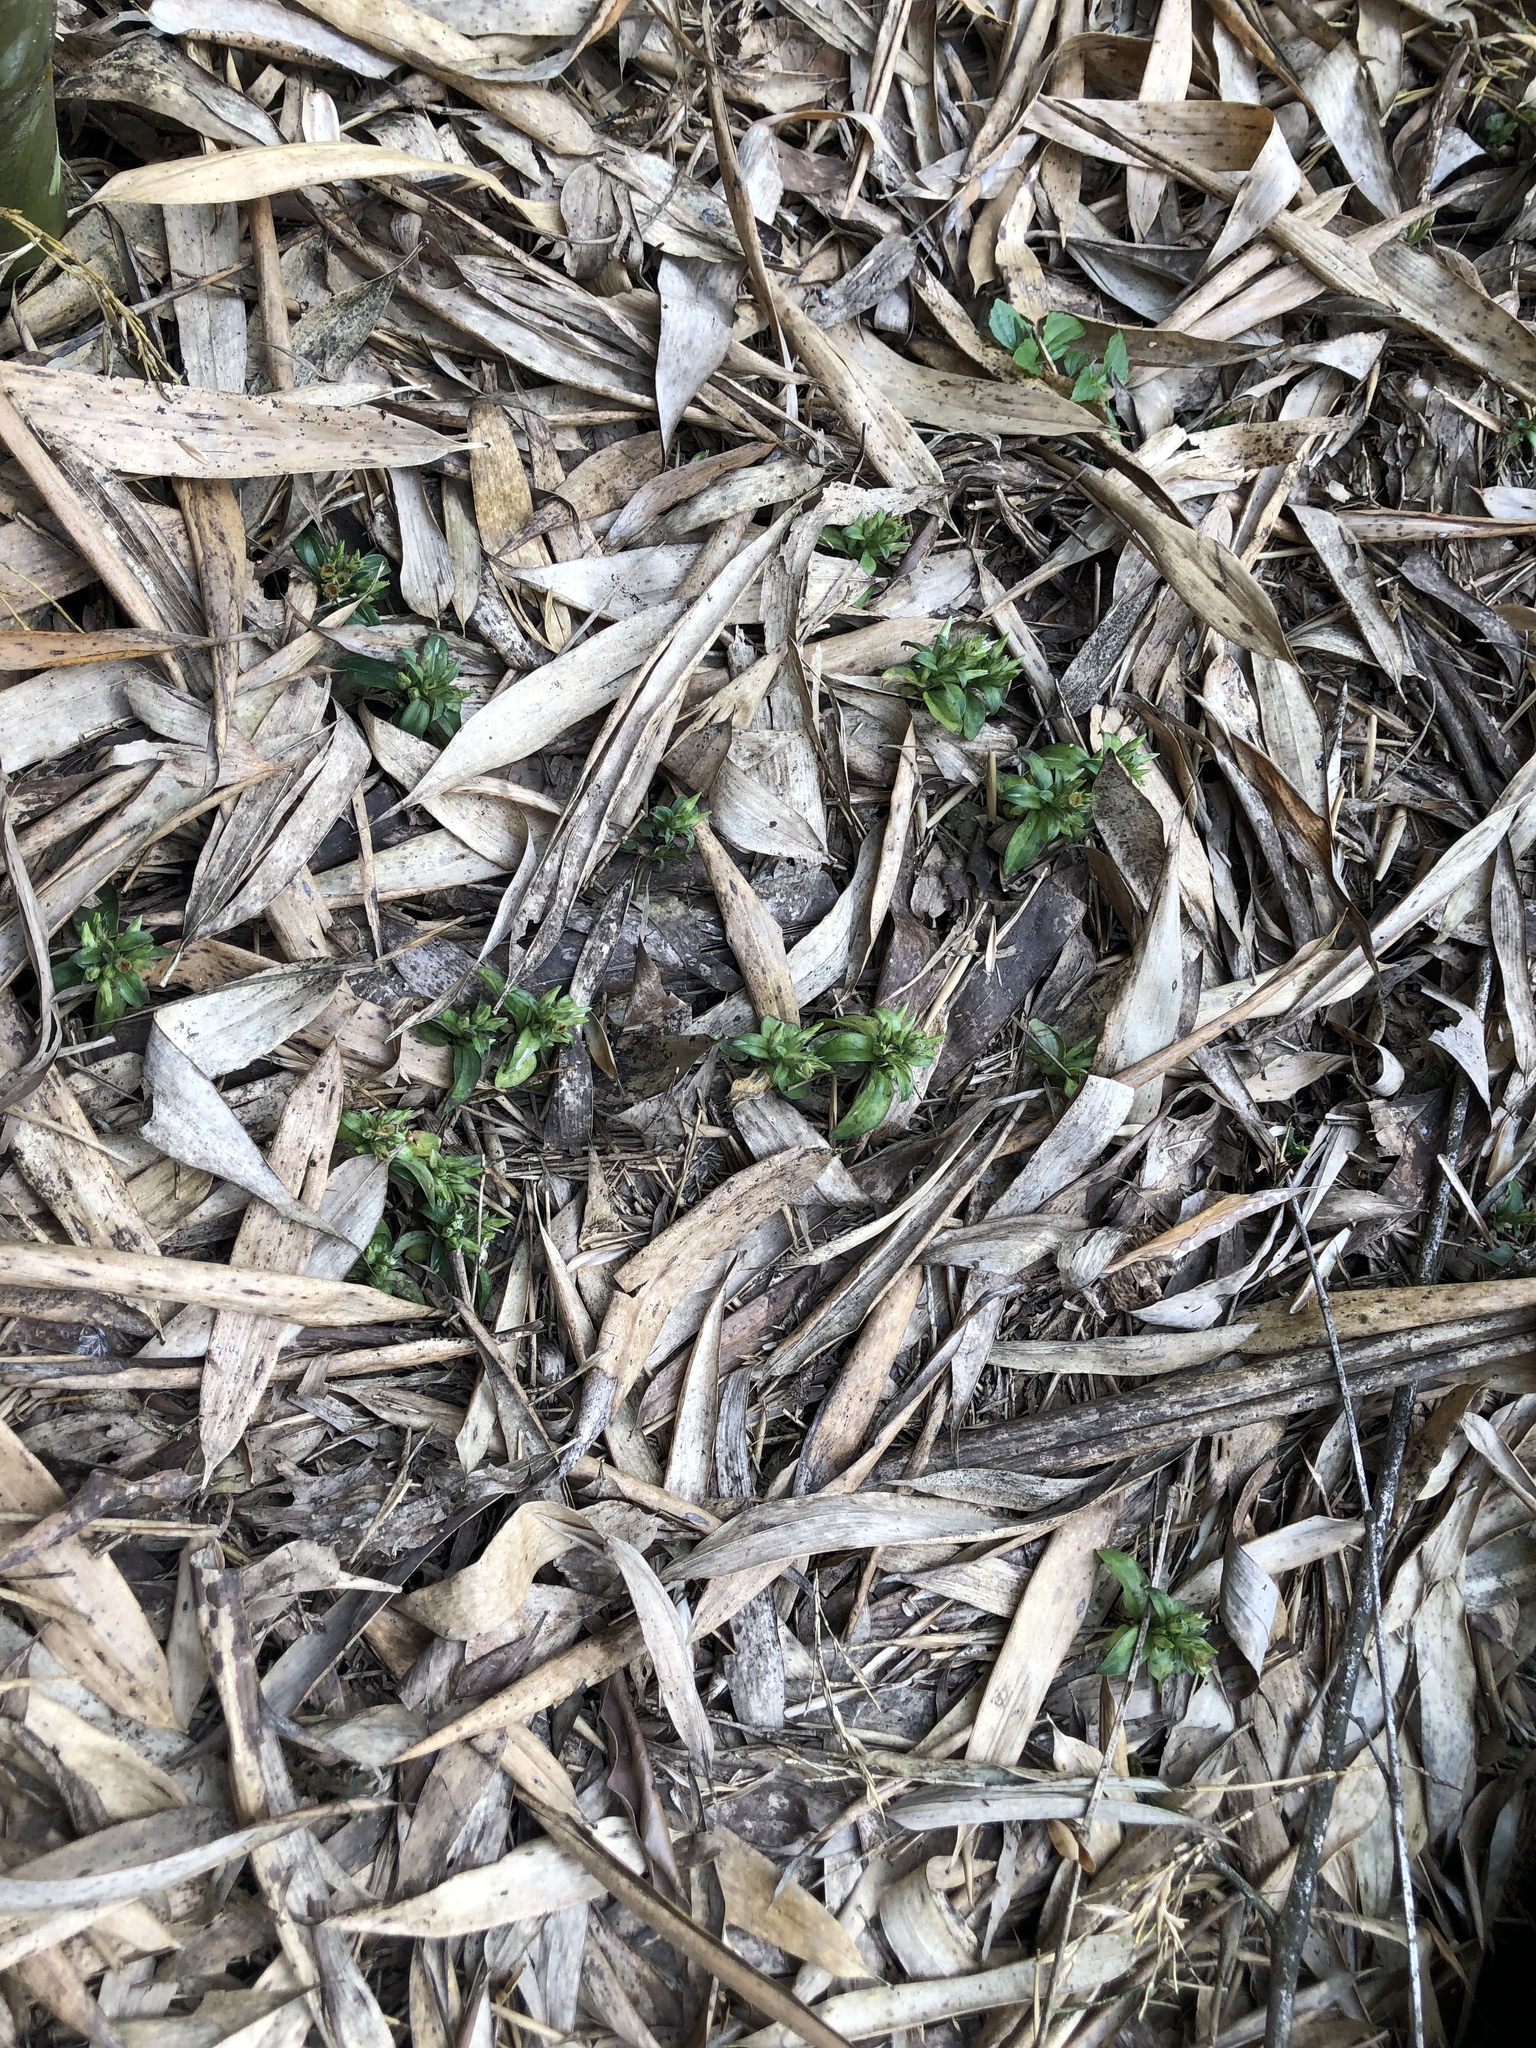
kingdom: Plantae
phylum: Tracheophyta
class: Magnoliopsida
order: Gentianales
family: Gentianaceae
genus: Gentiana
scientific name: Gentiana bambuseti
